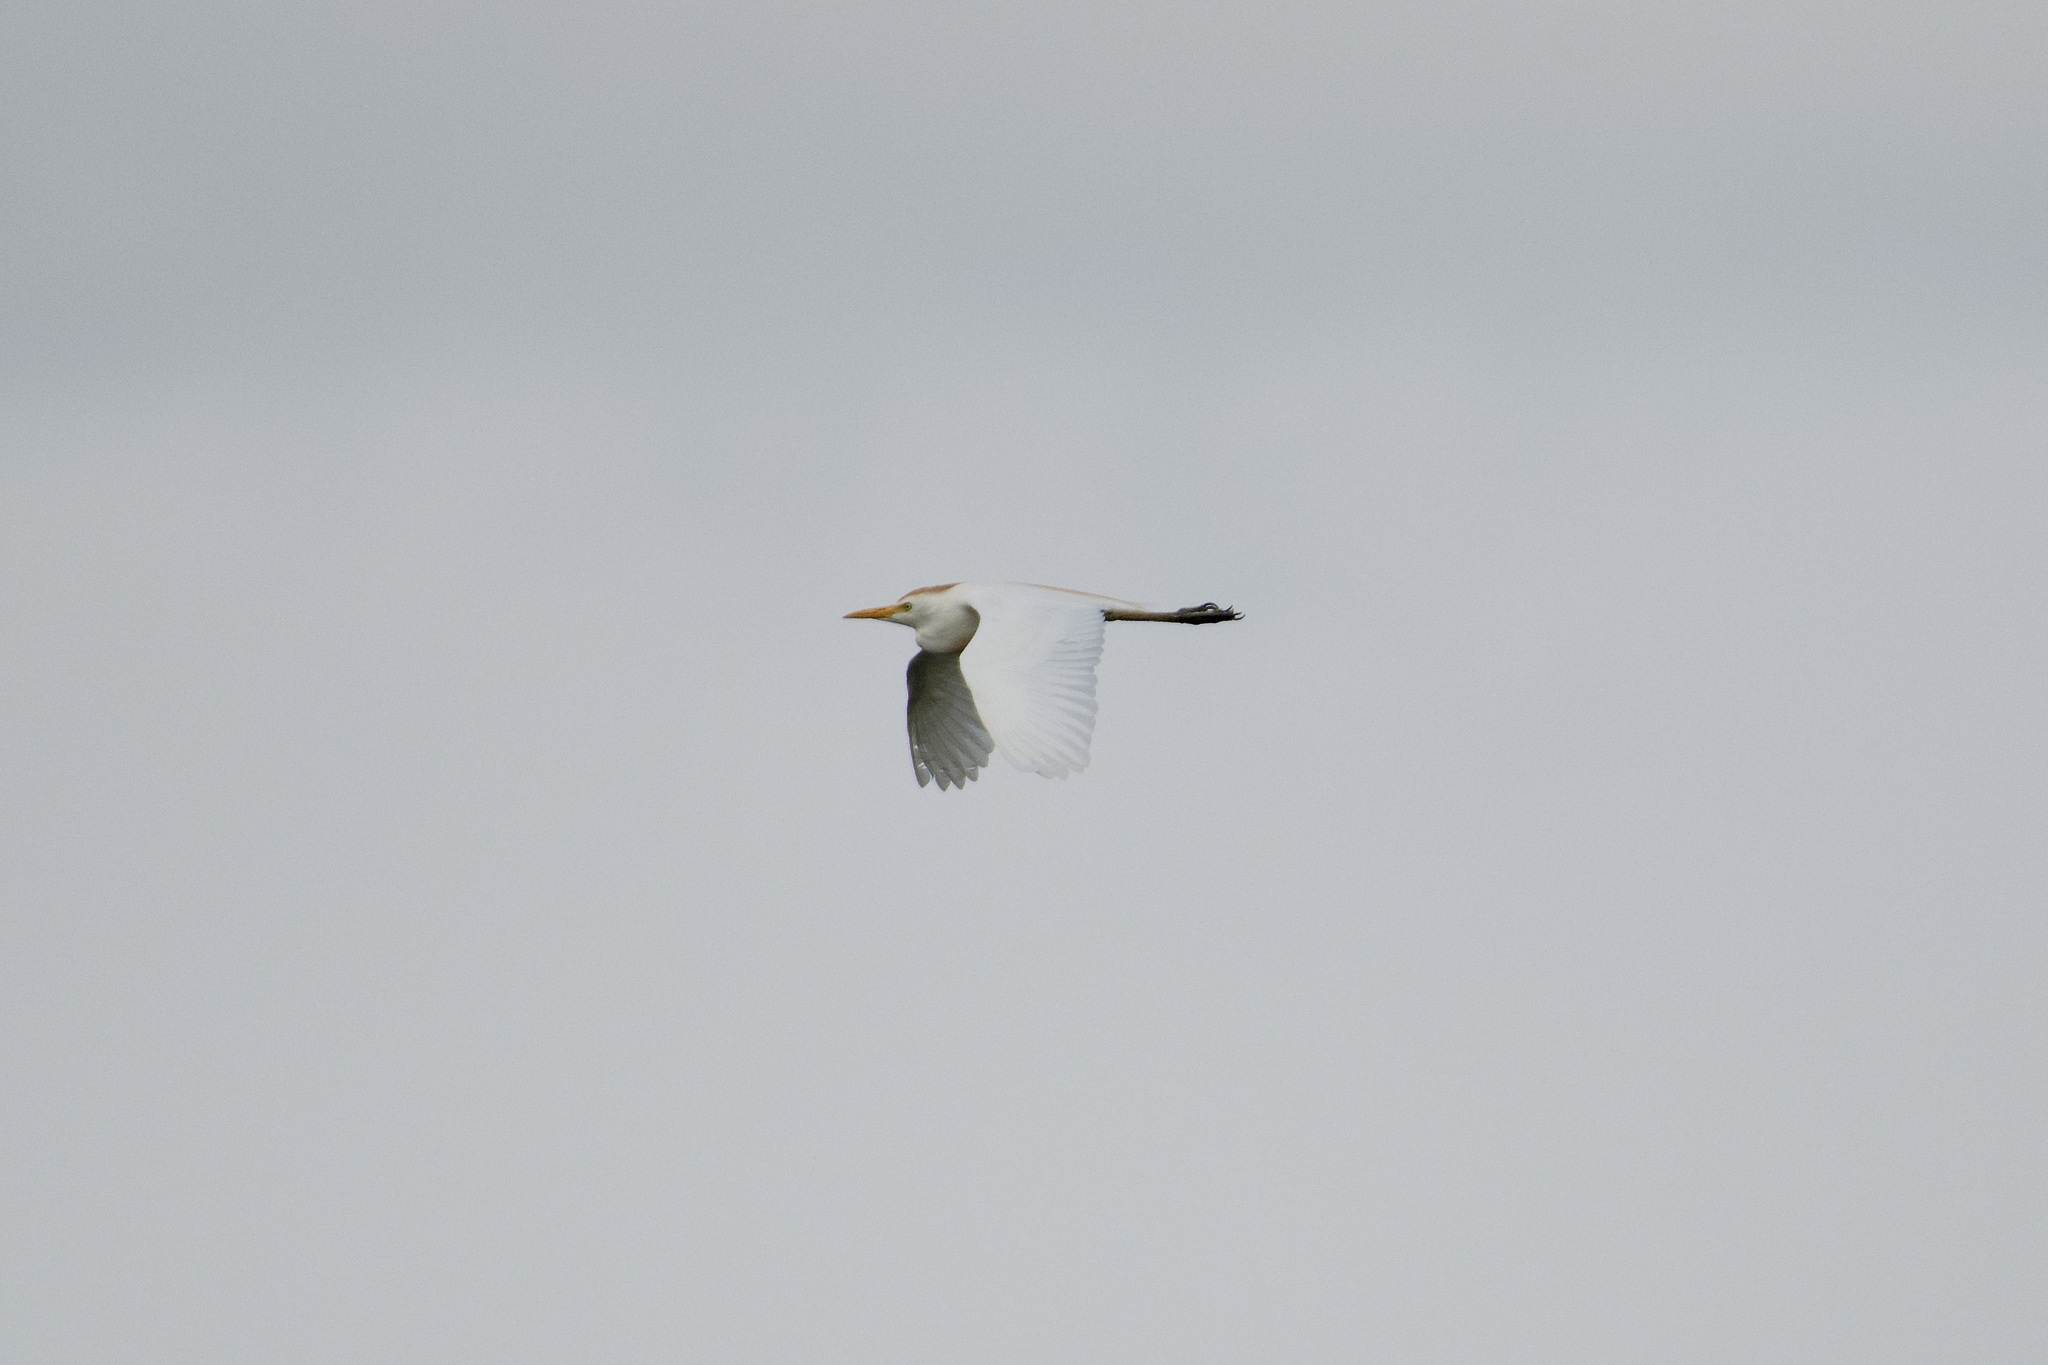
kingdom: Animalia
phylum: Chordata
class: Aves
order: Pelecaniformes
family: Ardeidae
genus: Bubulcus
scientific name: Bubulcus ibis
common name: Cattle egret
